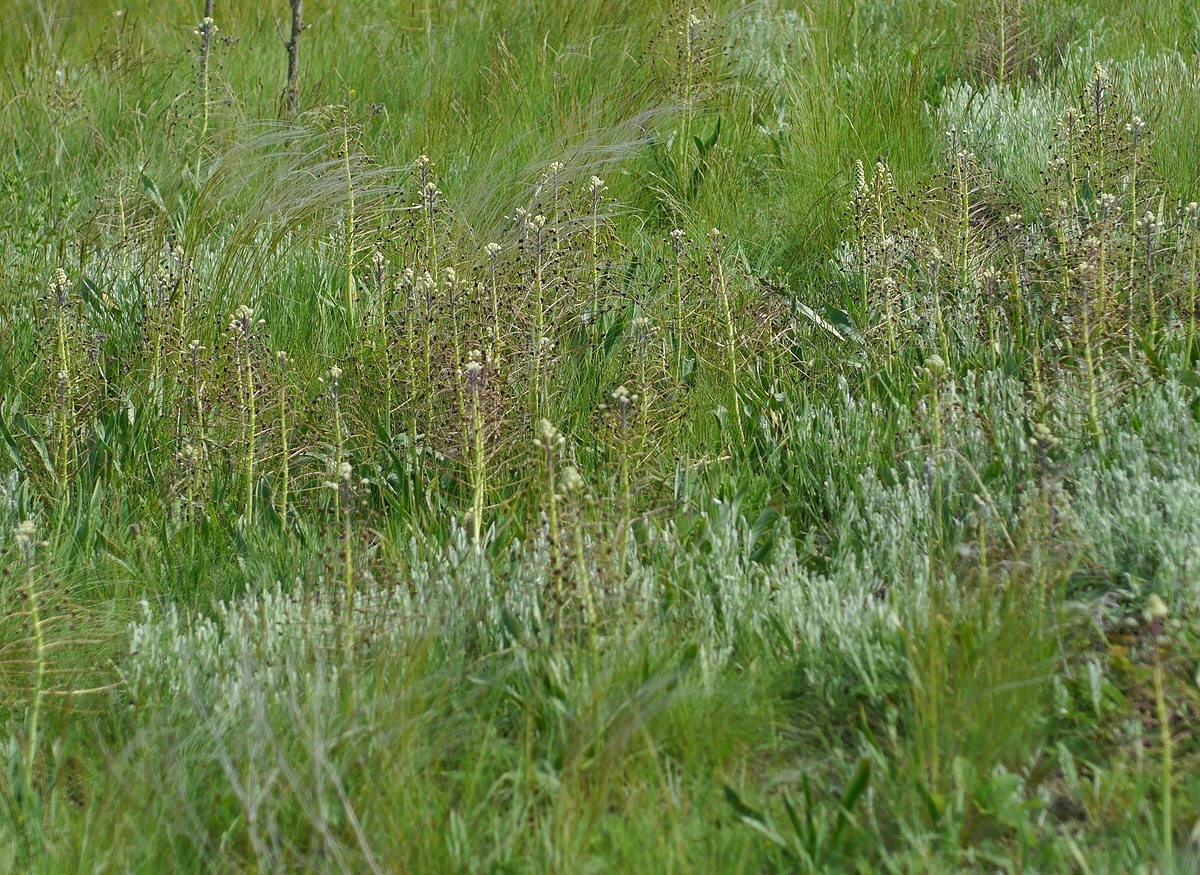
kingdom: Plantae
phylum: Tracheophyta
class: Liliopsida
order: Asparagales
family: Asparagaceae
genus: Bellevalia
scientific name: Bellevalia speciosa
